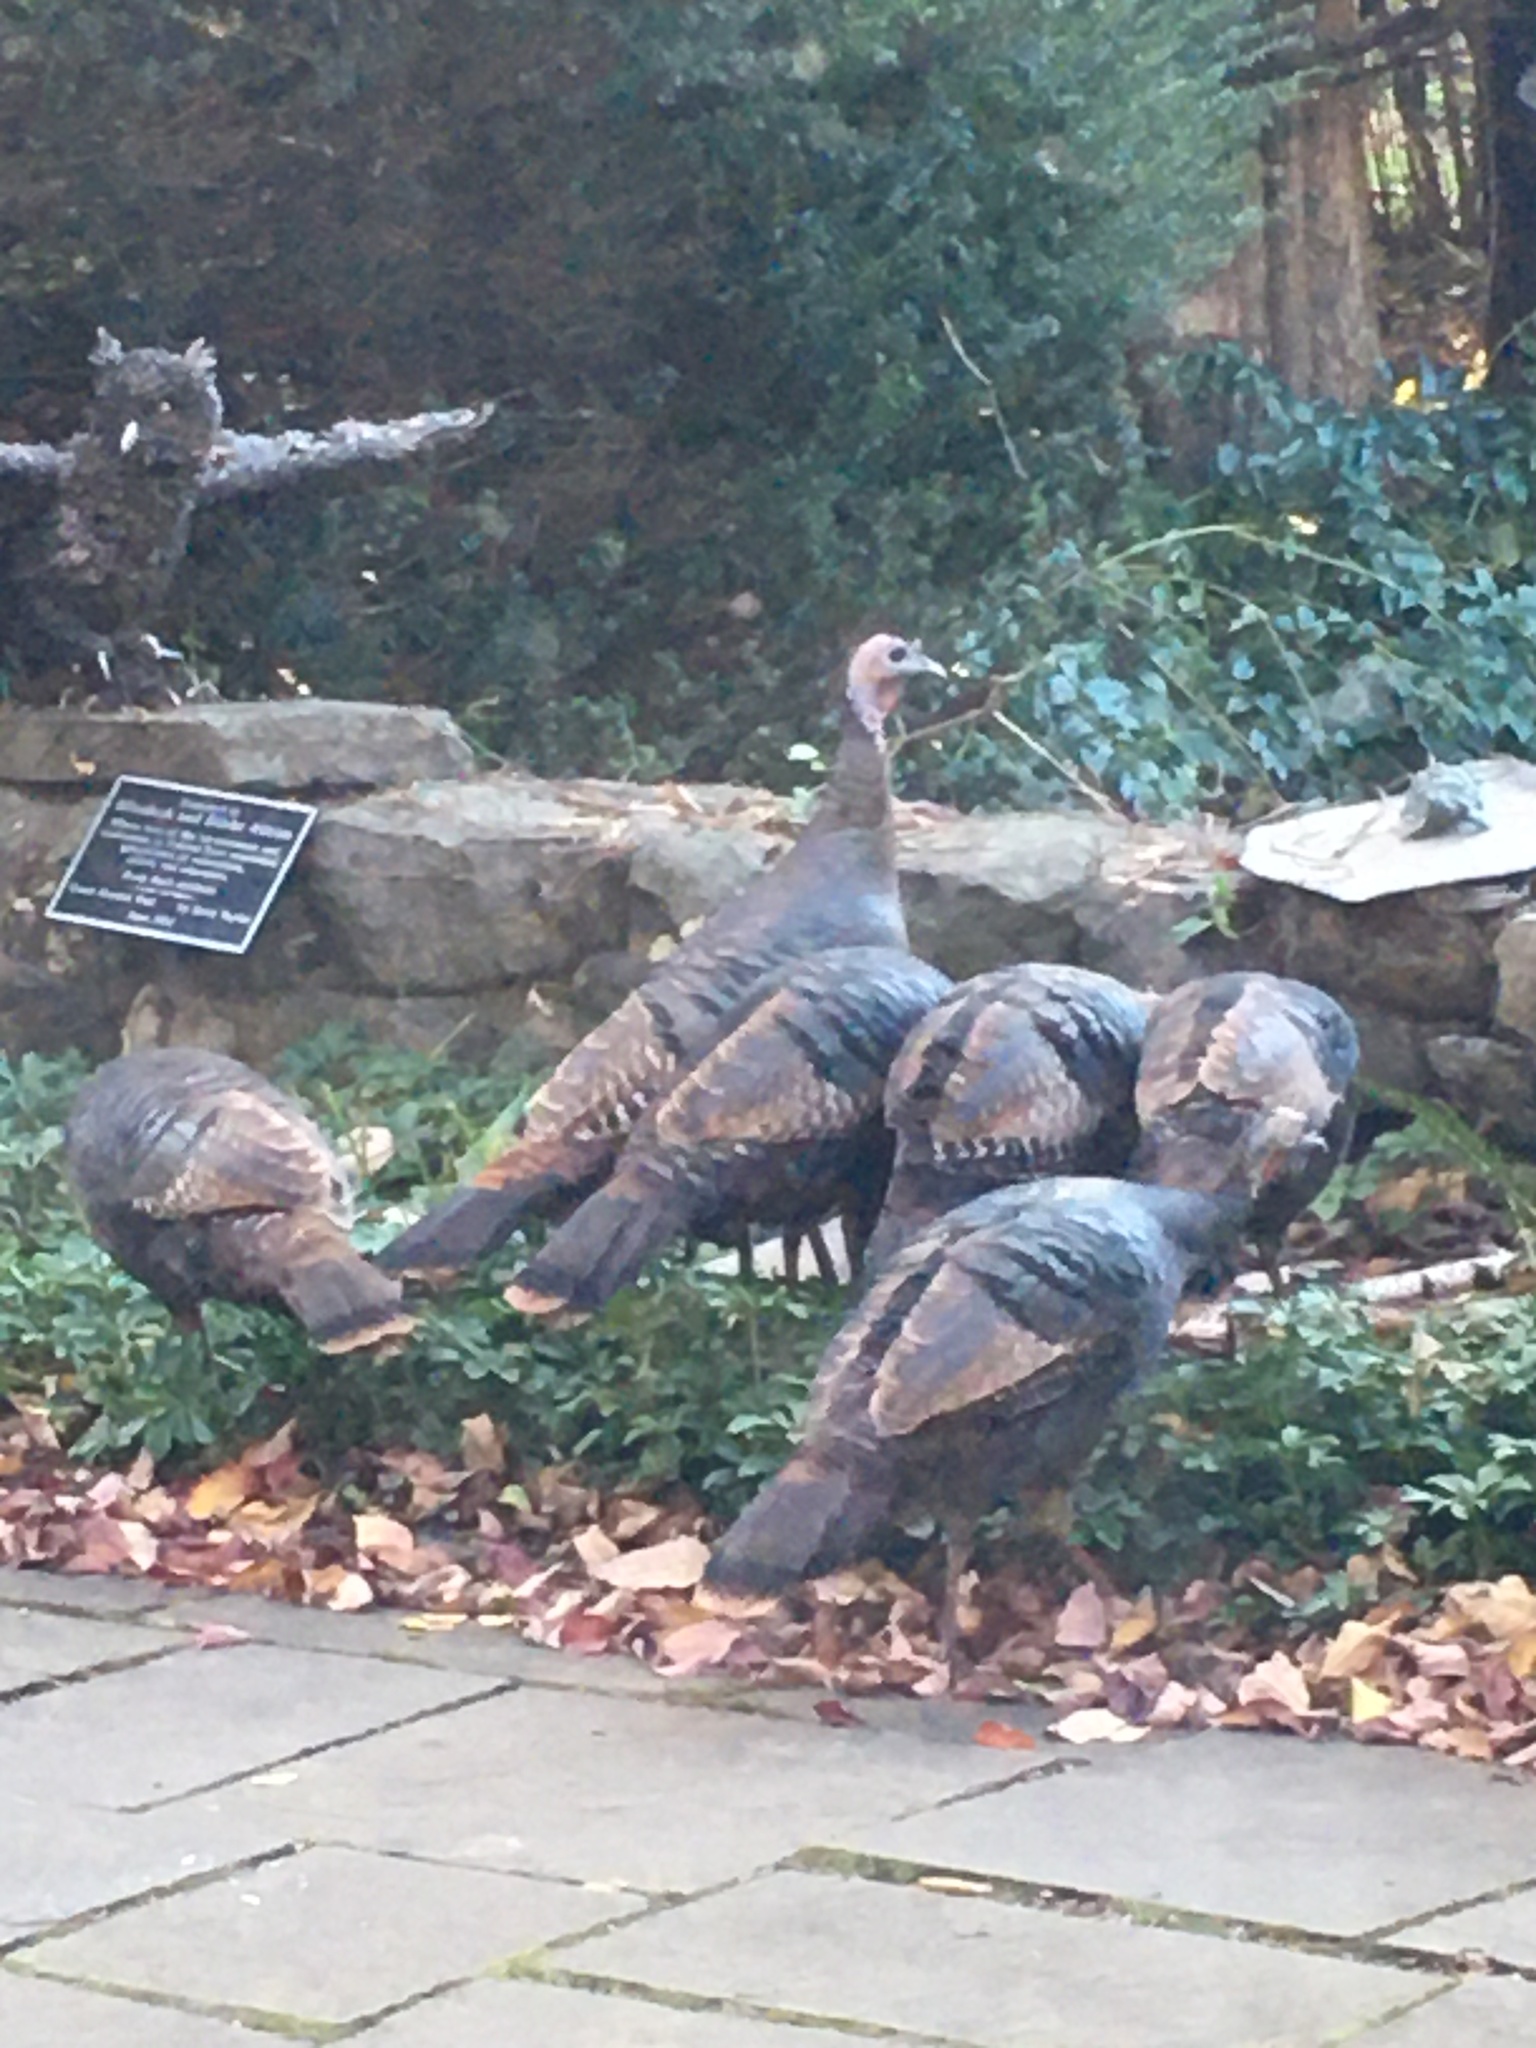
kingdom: Animalia
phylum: Chordata
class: Aves
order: Galliformes
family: Phasianidae
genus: Meleagris
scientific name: Meleagris gallopavo
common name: Wild turkey
